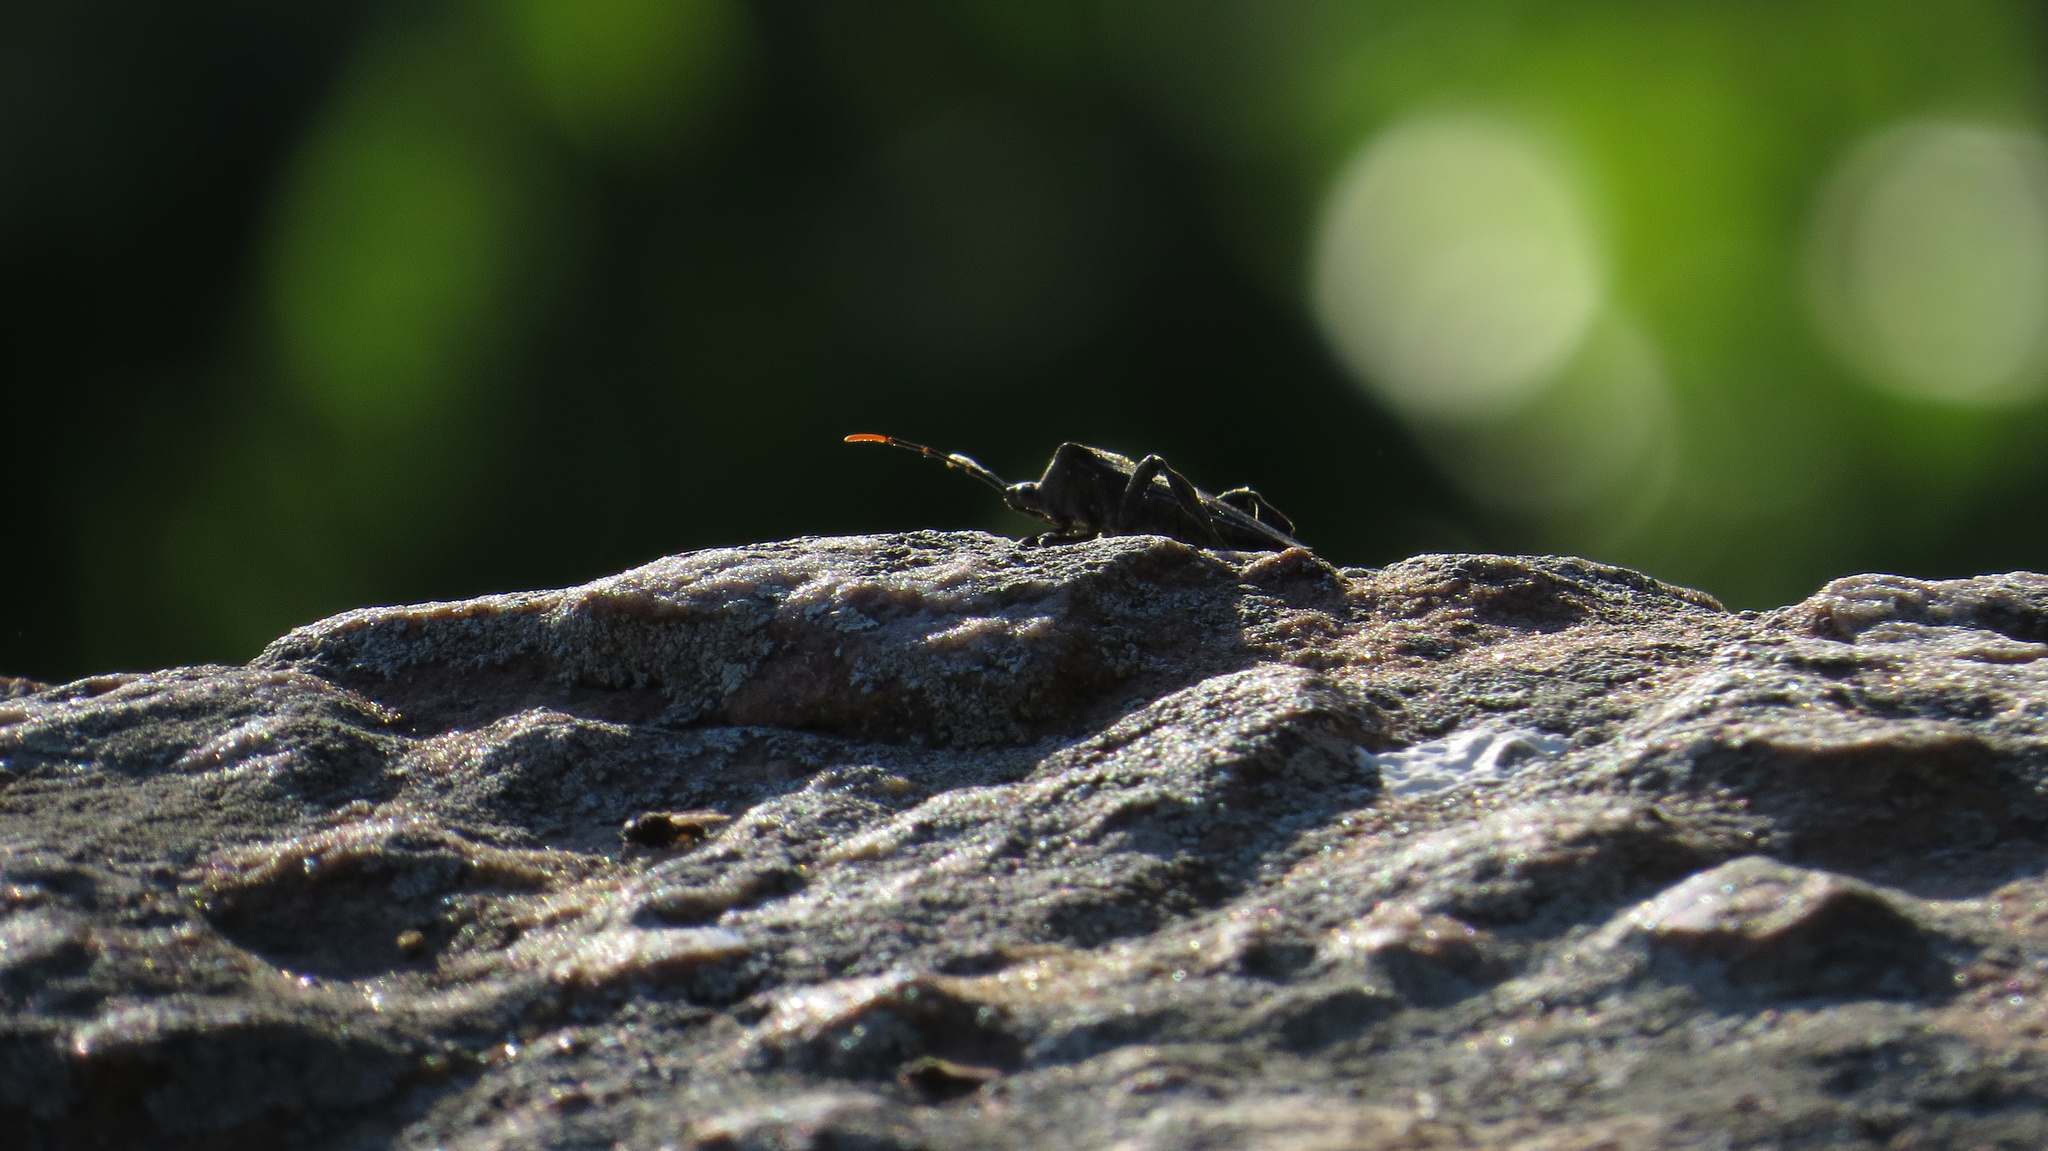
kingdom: Animalia
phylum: Arthropoda
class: Insecta
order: Hemiptera
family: Coreidae
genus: Acanthocephala
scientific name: Acanthocephala terminalis
